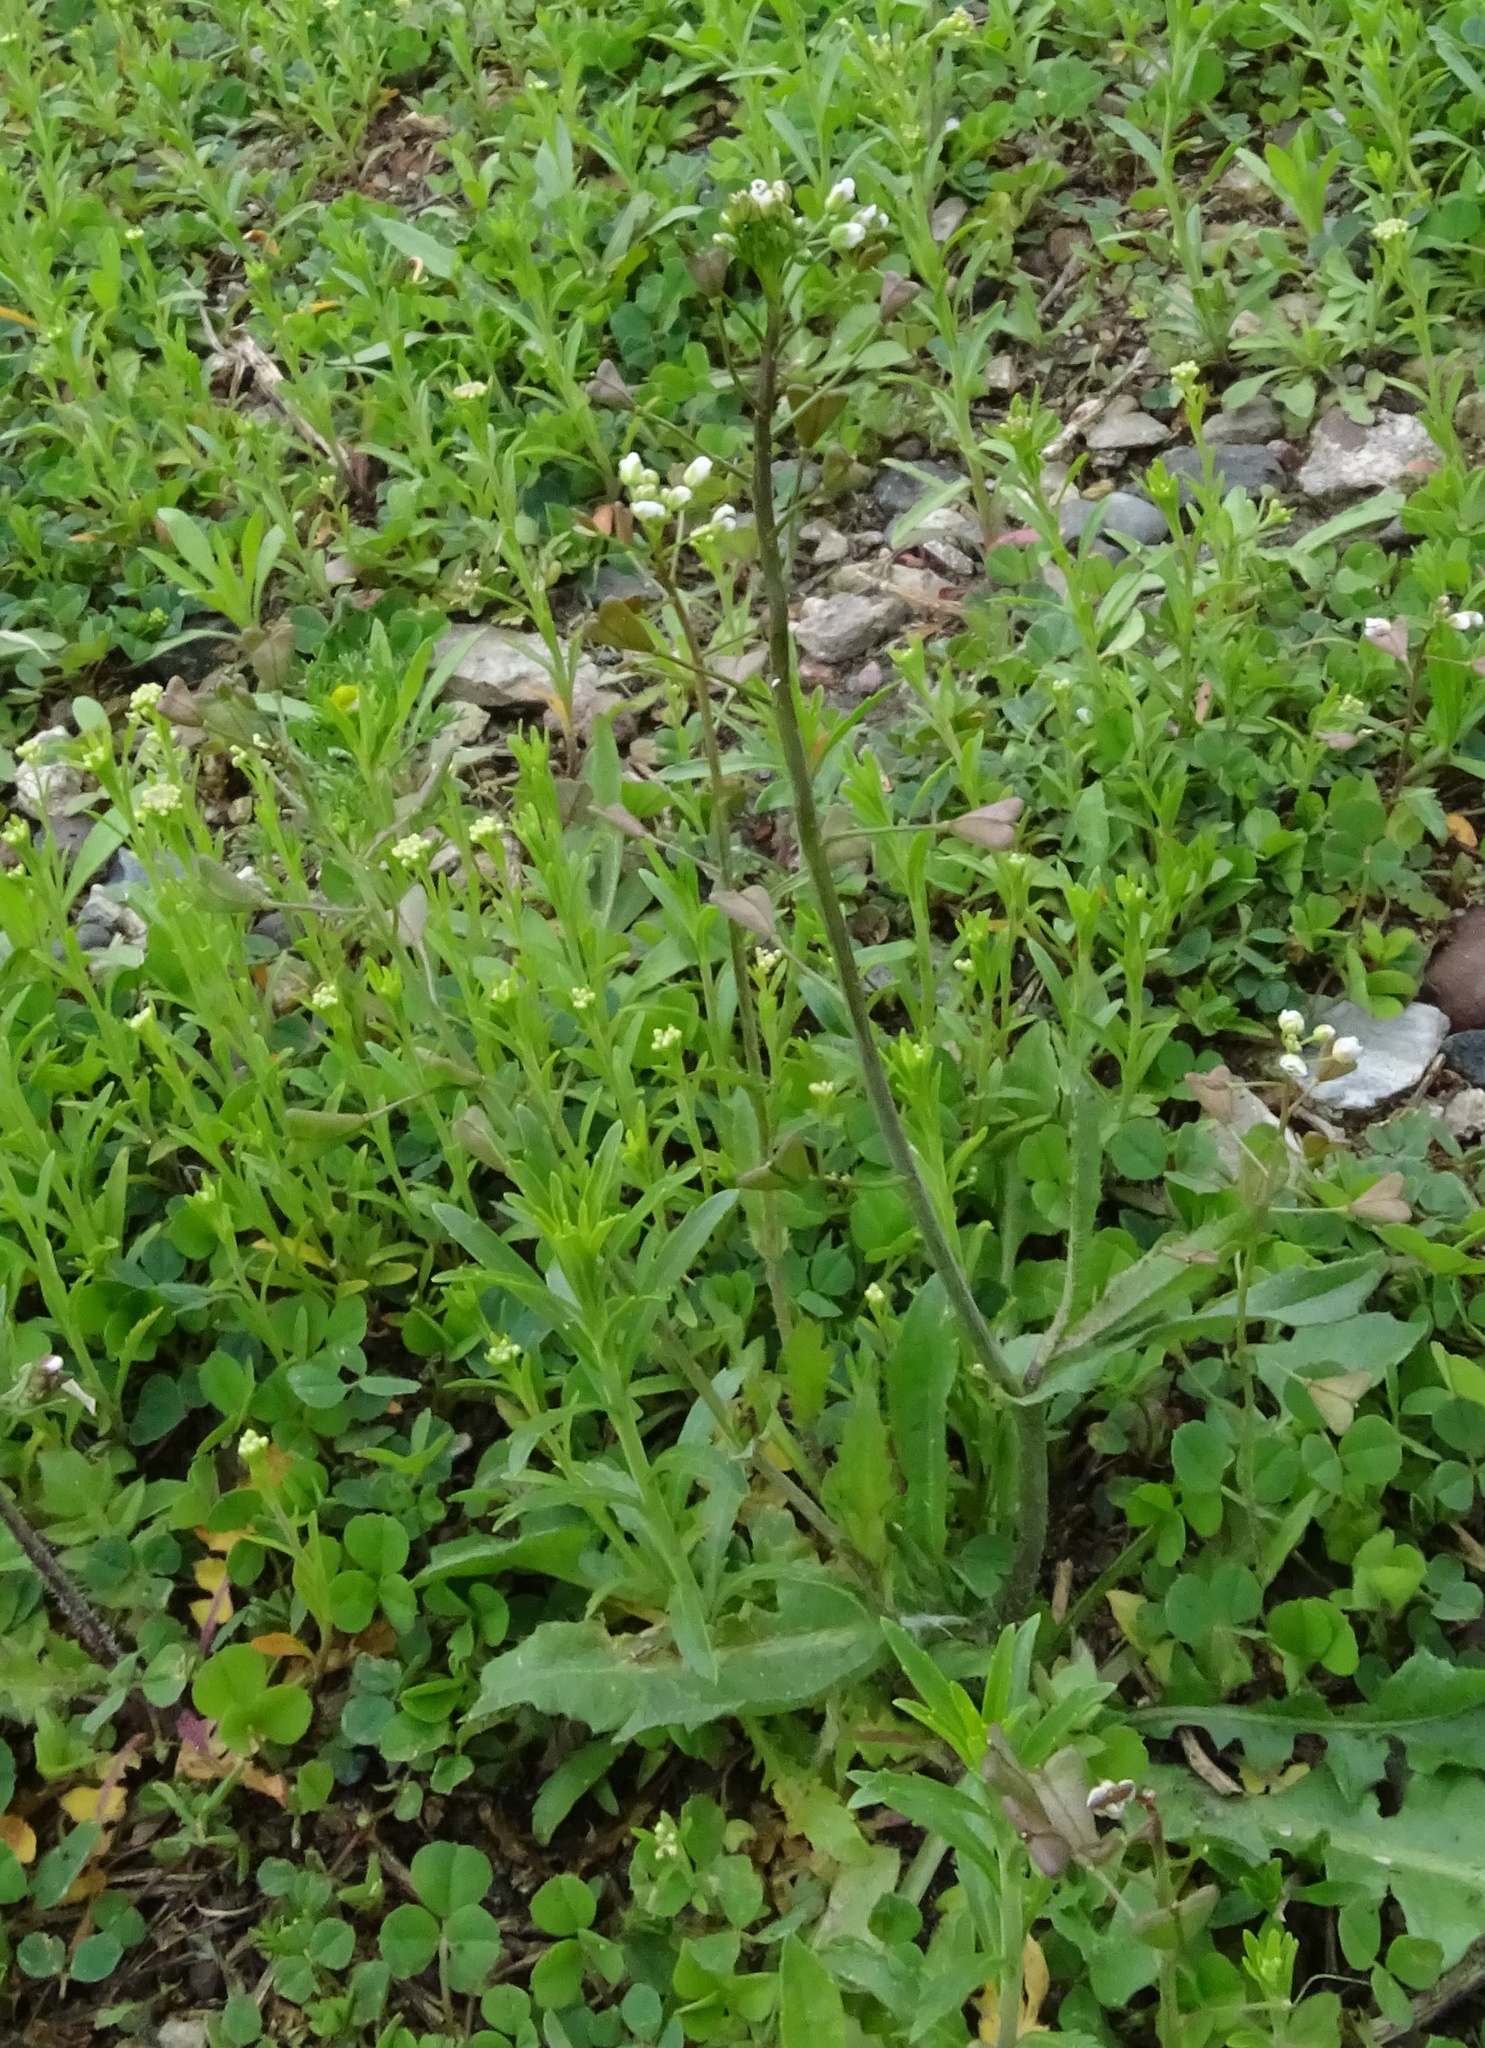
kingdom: Plantae
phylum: Tracheophyta
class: Magnoliopsida
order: Brassicales
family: Brassicaceae
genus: Capsella
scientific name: Capsella bursa-pastoris
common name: Shepherd's purse
